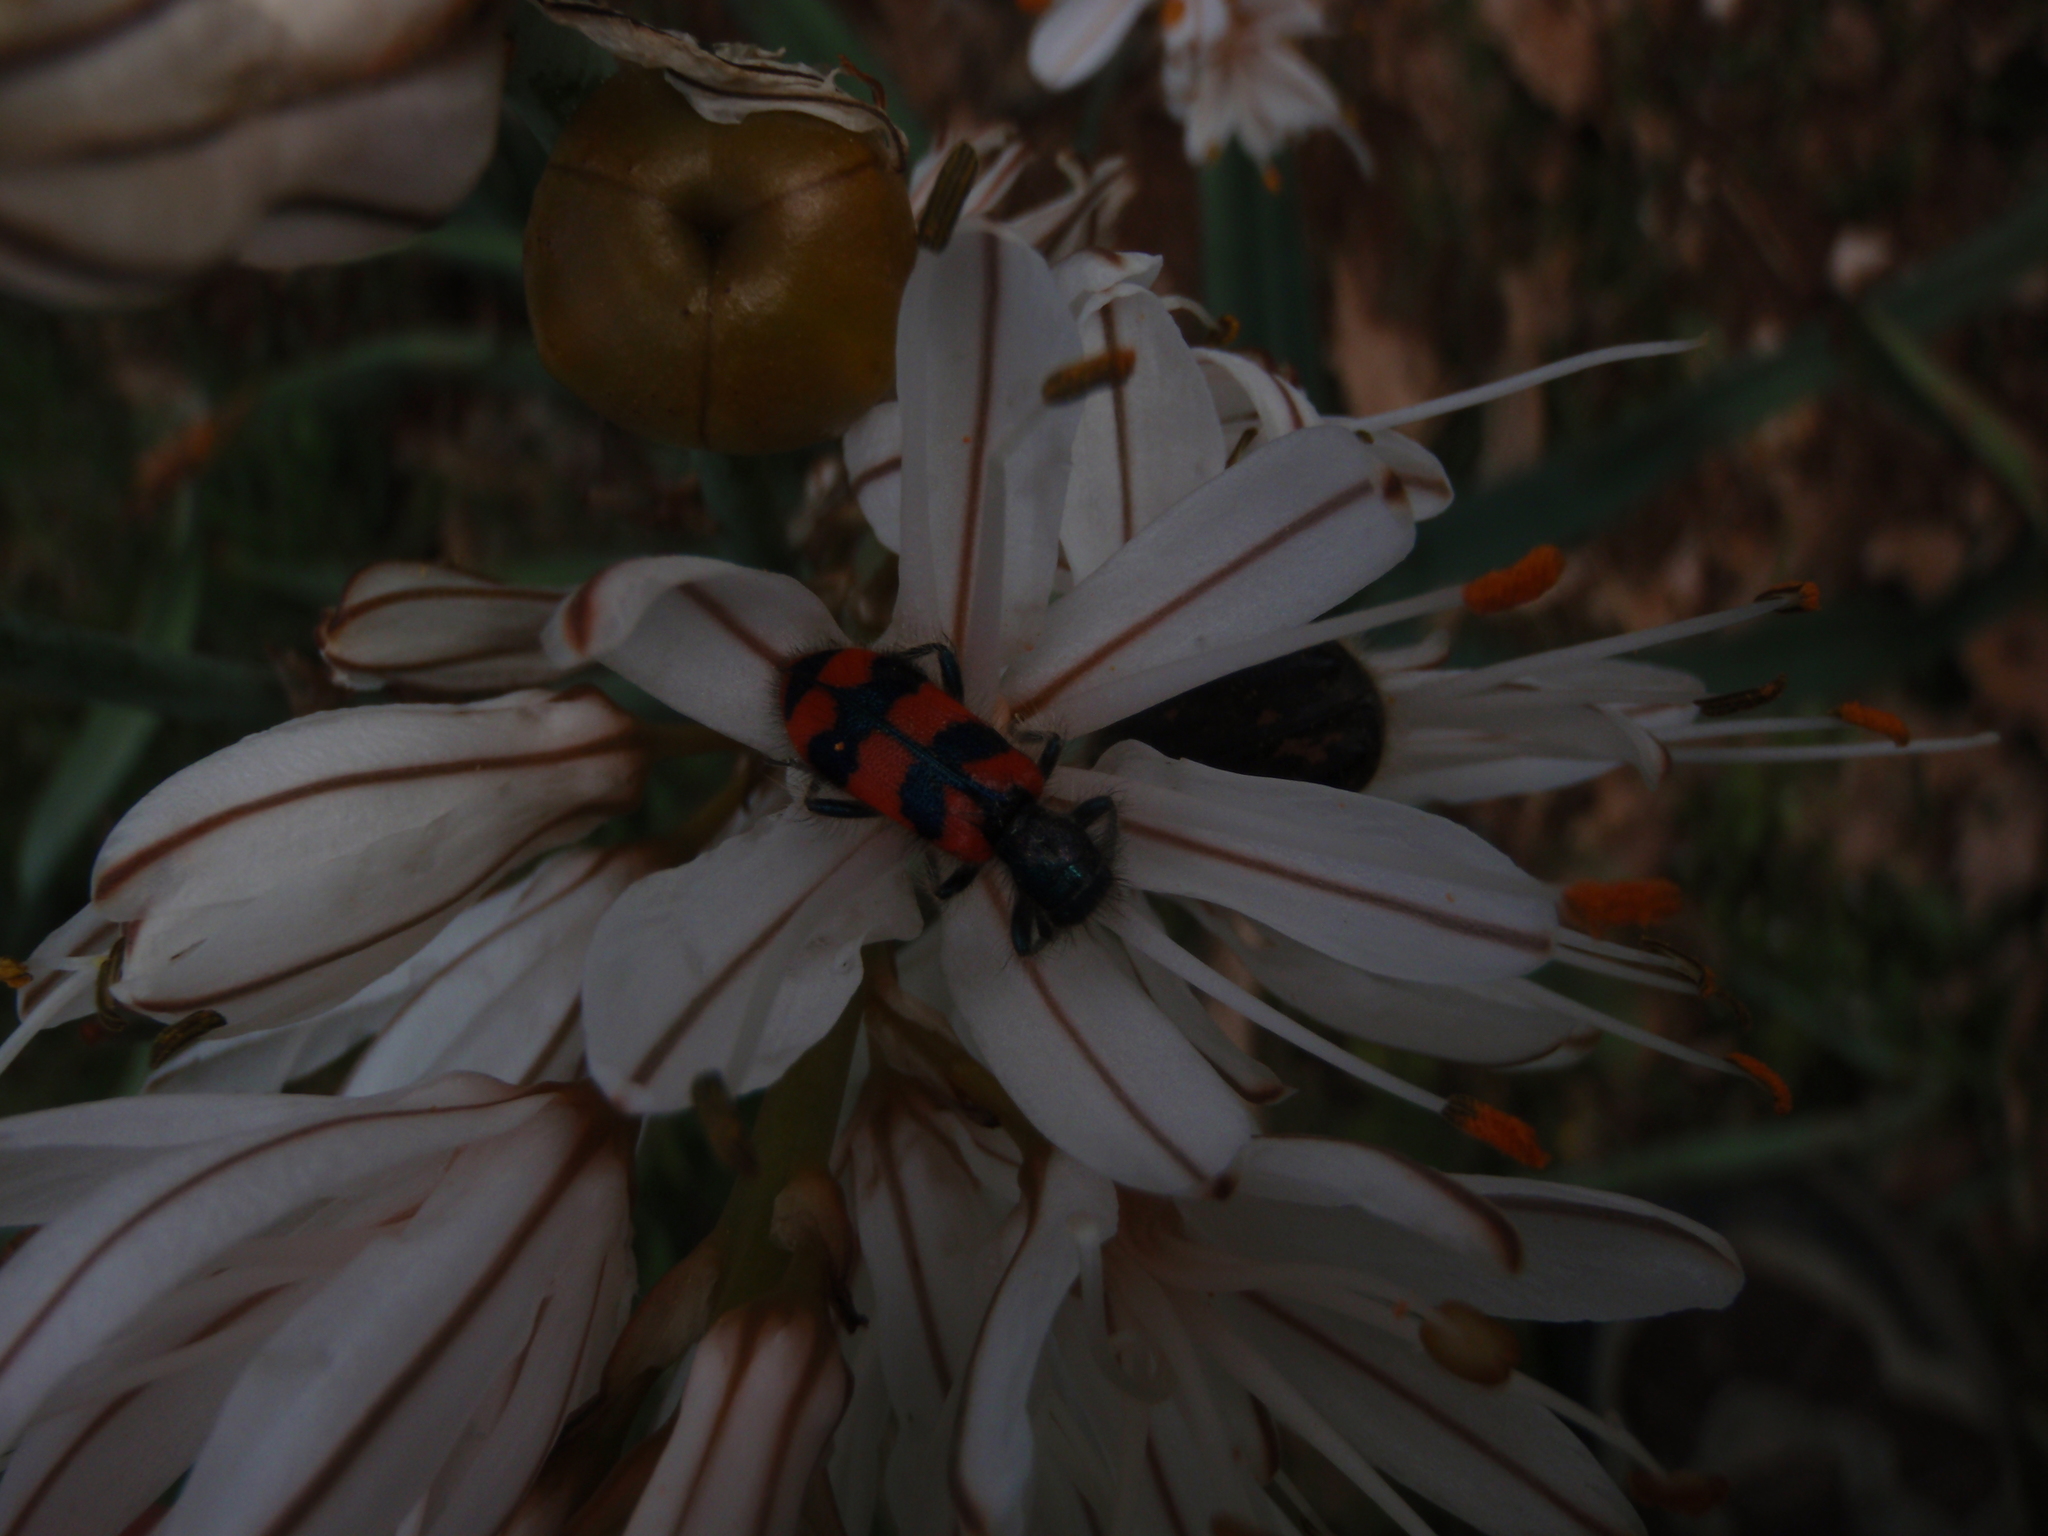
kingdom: Animalia
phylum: Arthropoda
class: Insecta
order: Coleoptera
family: Cleridae
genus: Trichodes
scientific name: Trichodes alvearius
